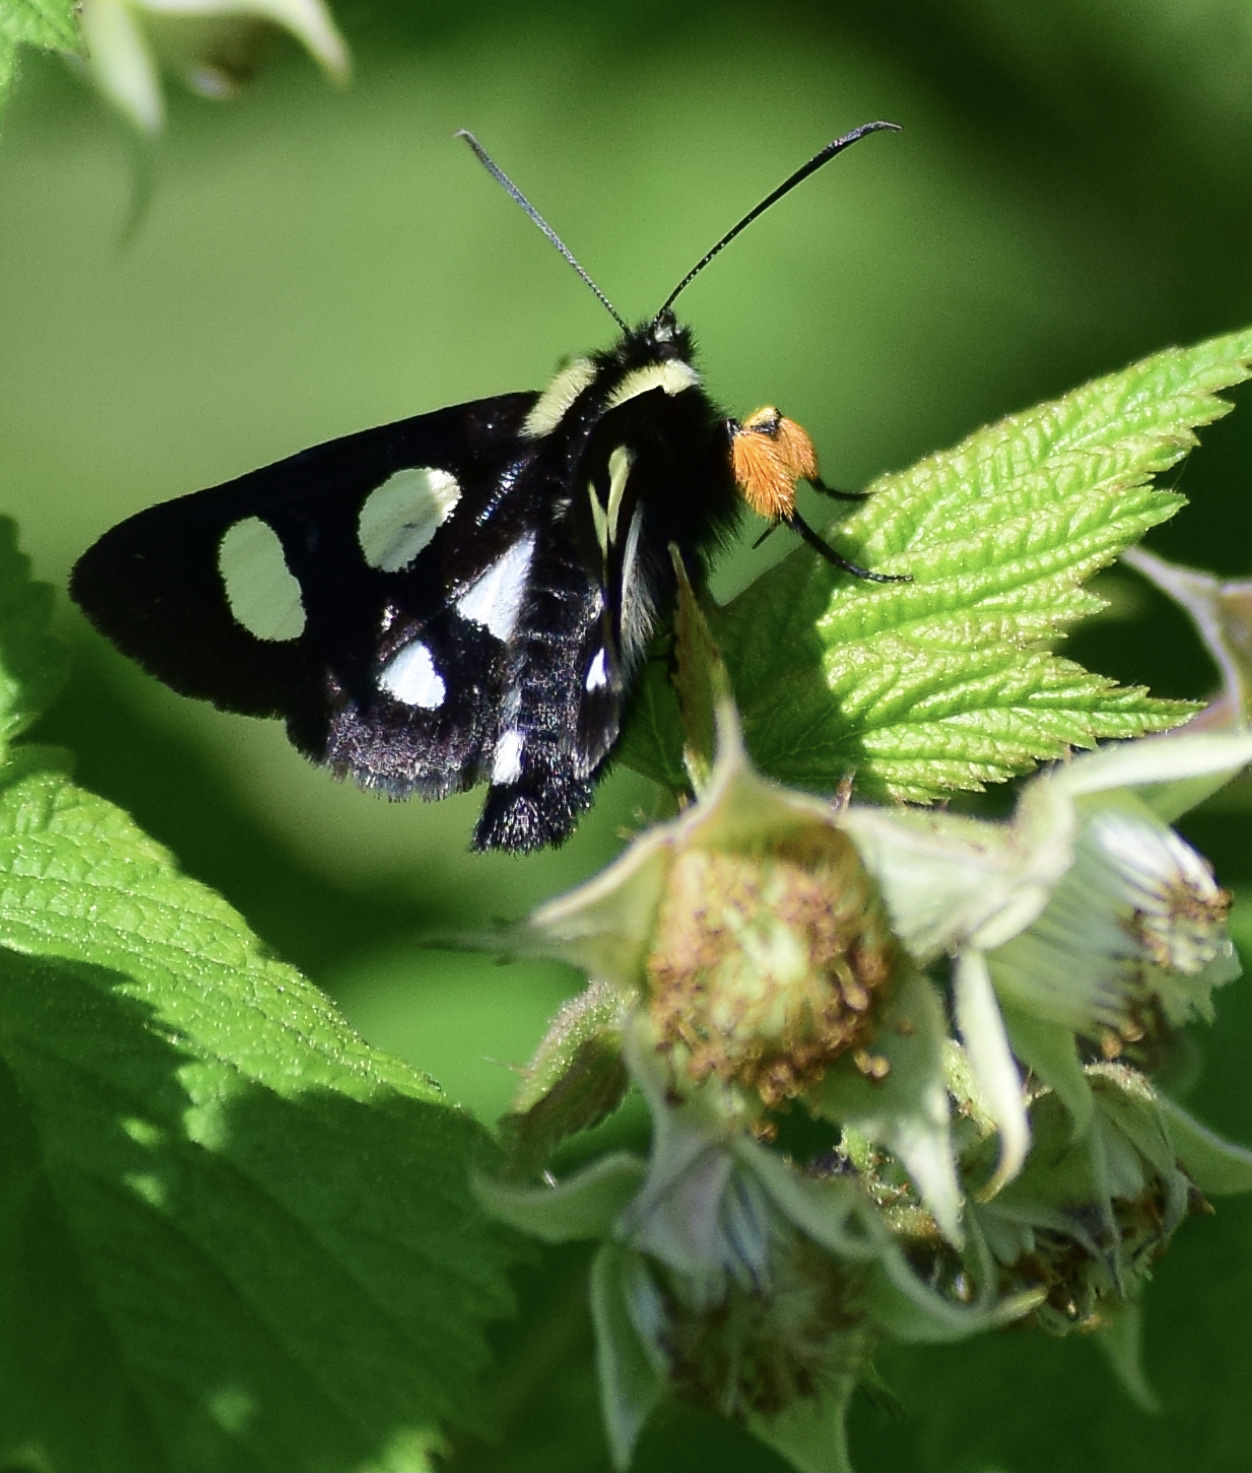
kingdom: Animalia
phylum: Arthropoda
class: Insecta
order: Lepidoptera
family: Noctuidae
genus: Alypia
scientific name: Alypia octomaculata
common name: Eight-spotted forester
